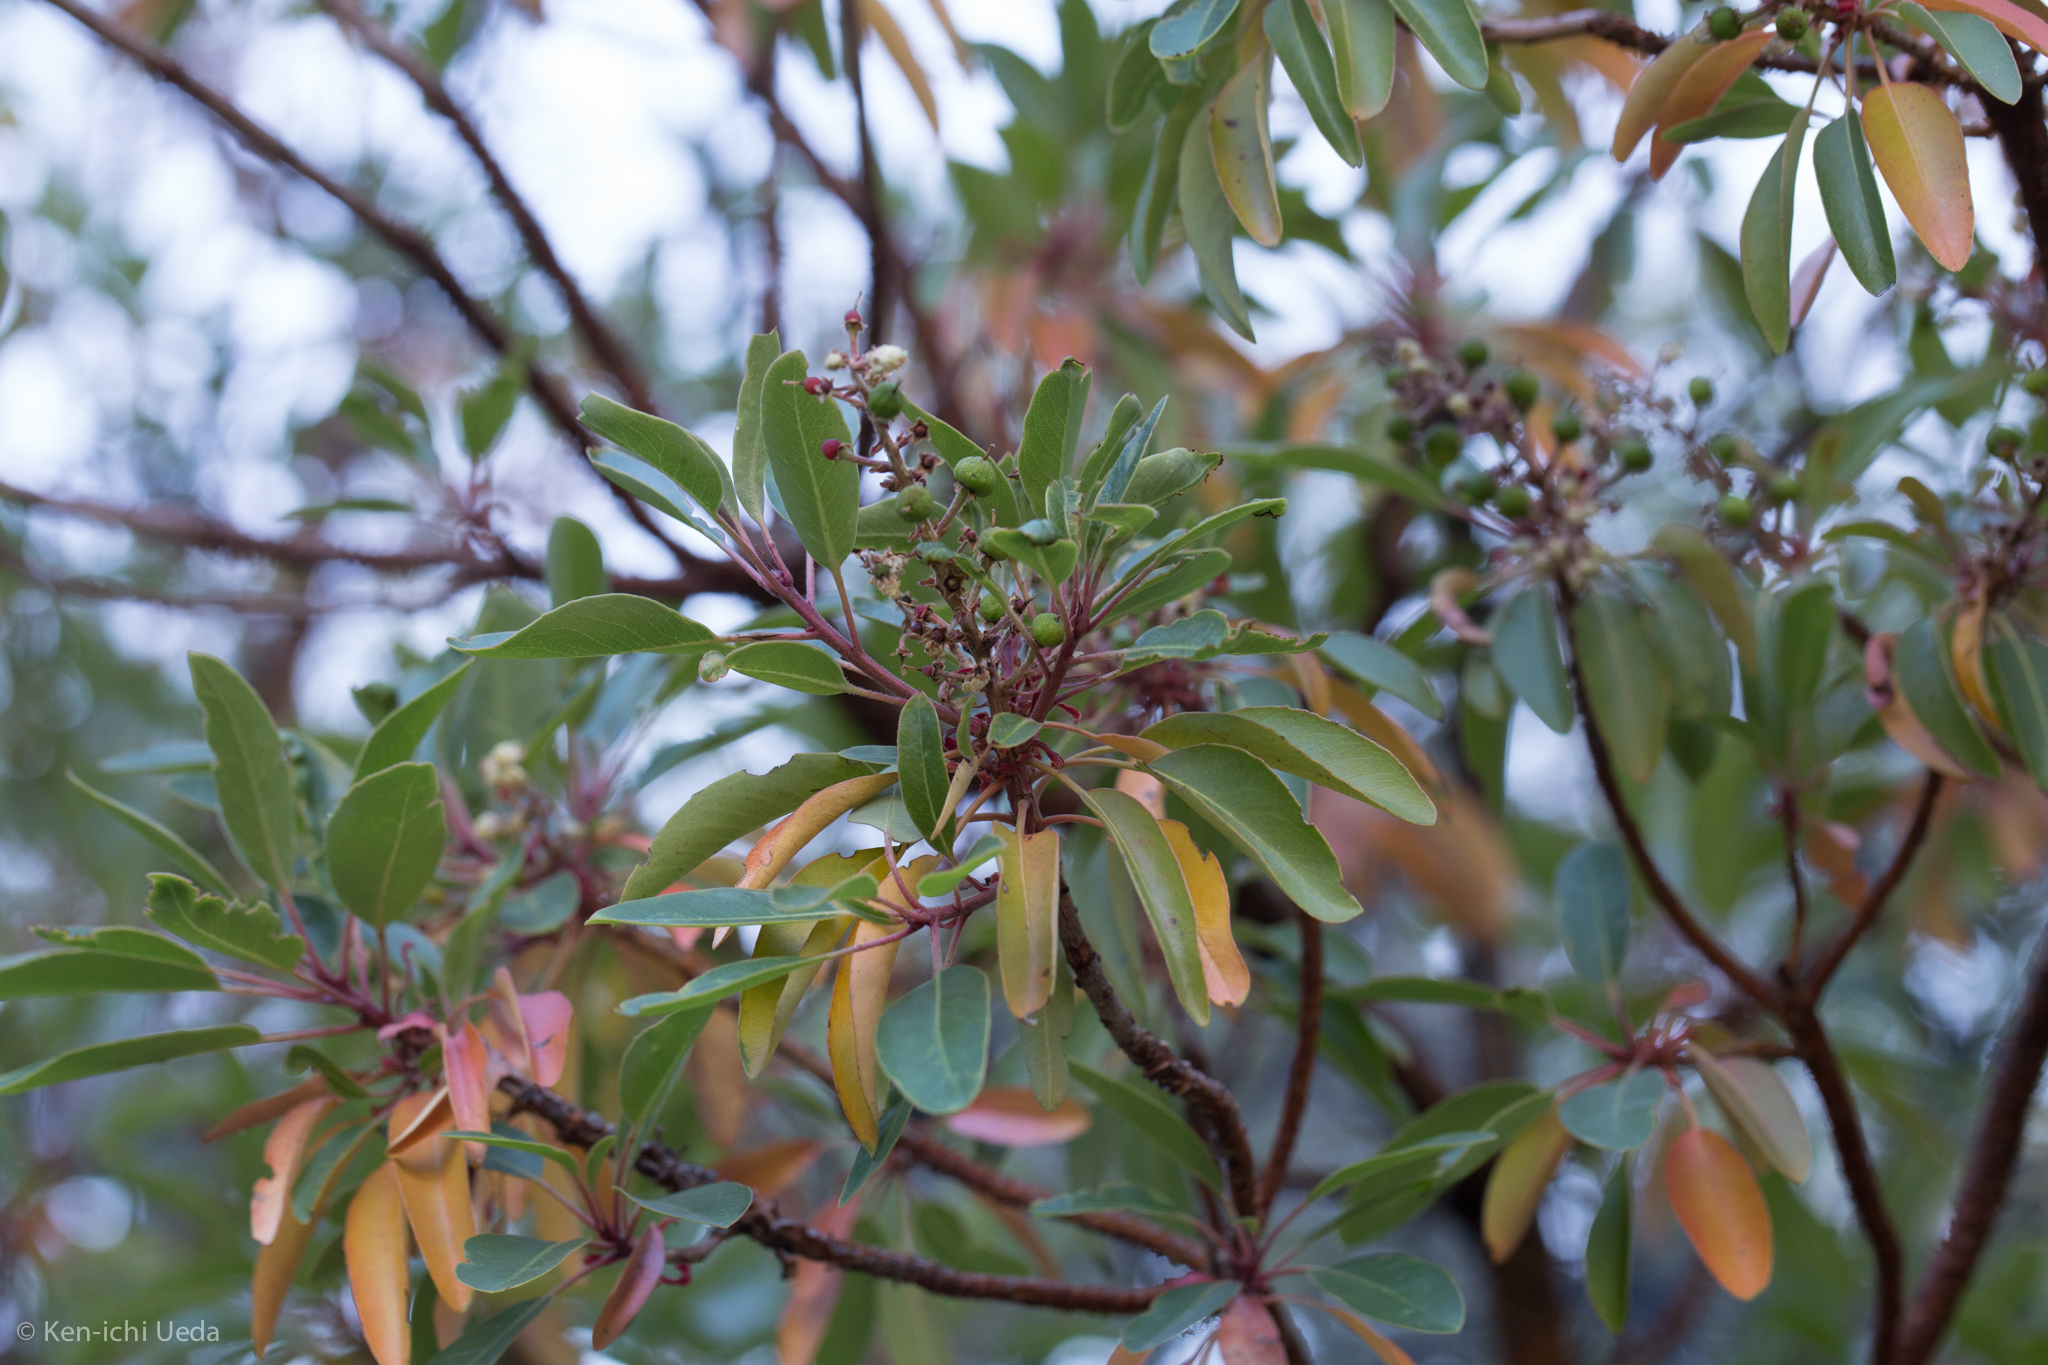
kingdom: Plantae
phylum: Tracheophyta
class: Magnoliopsida
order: Ericales
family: Ericaceae
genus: Arbutus
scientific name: Arbutus arizonica
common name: Arizona madrone
